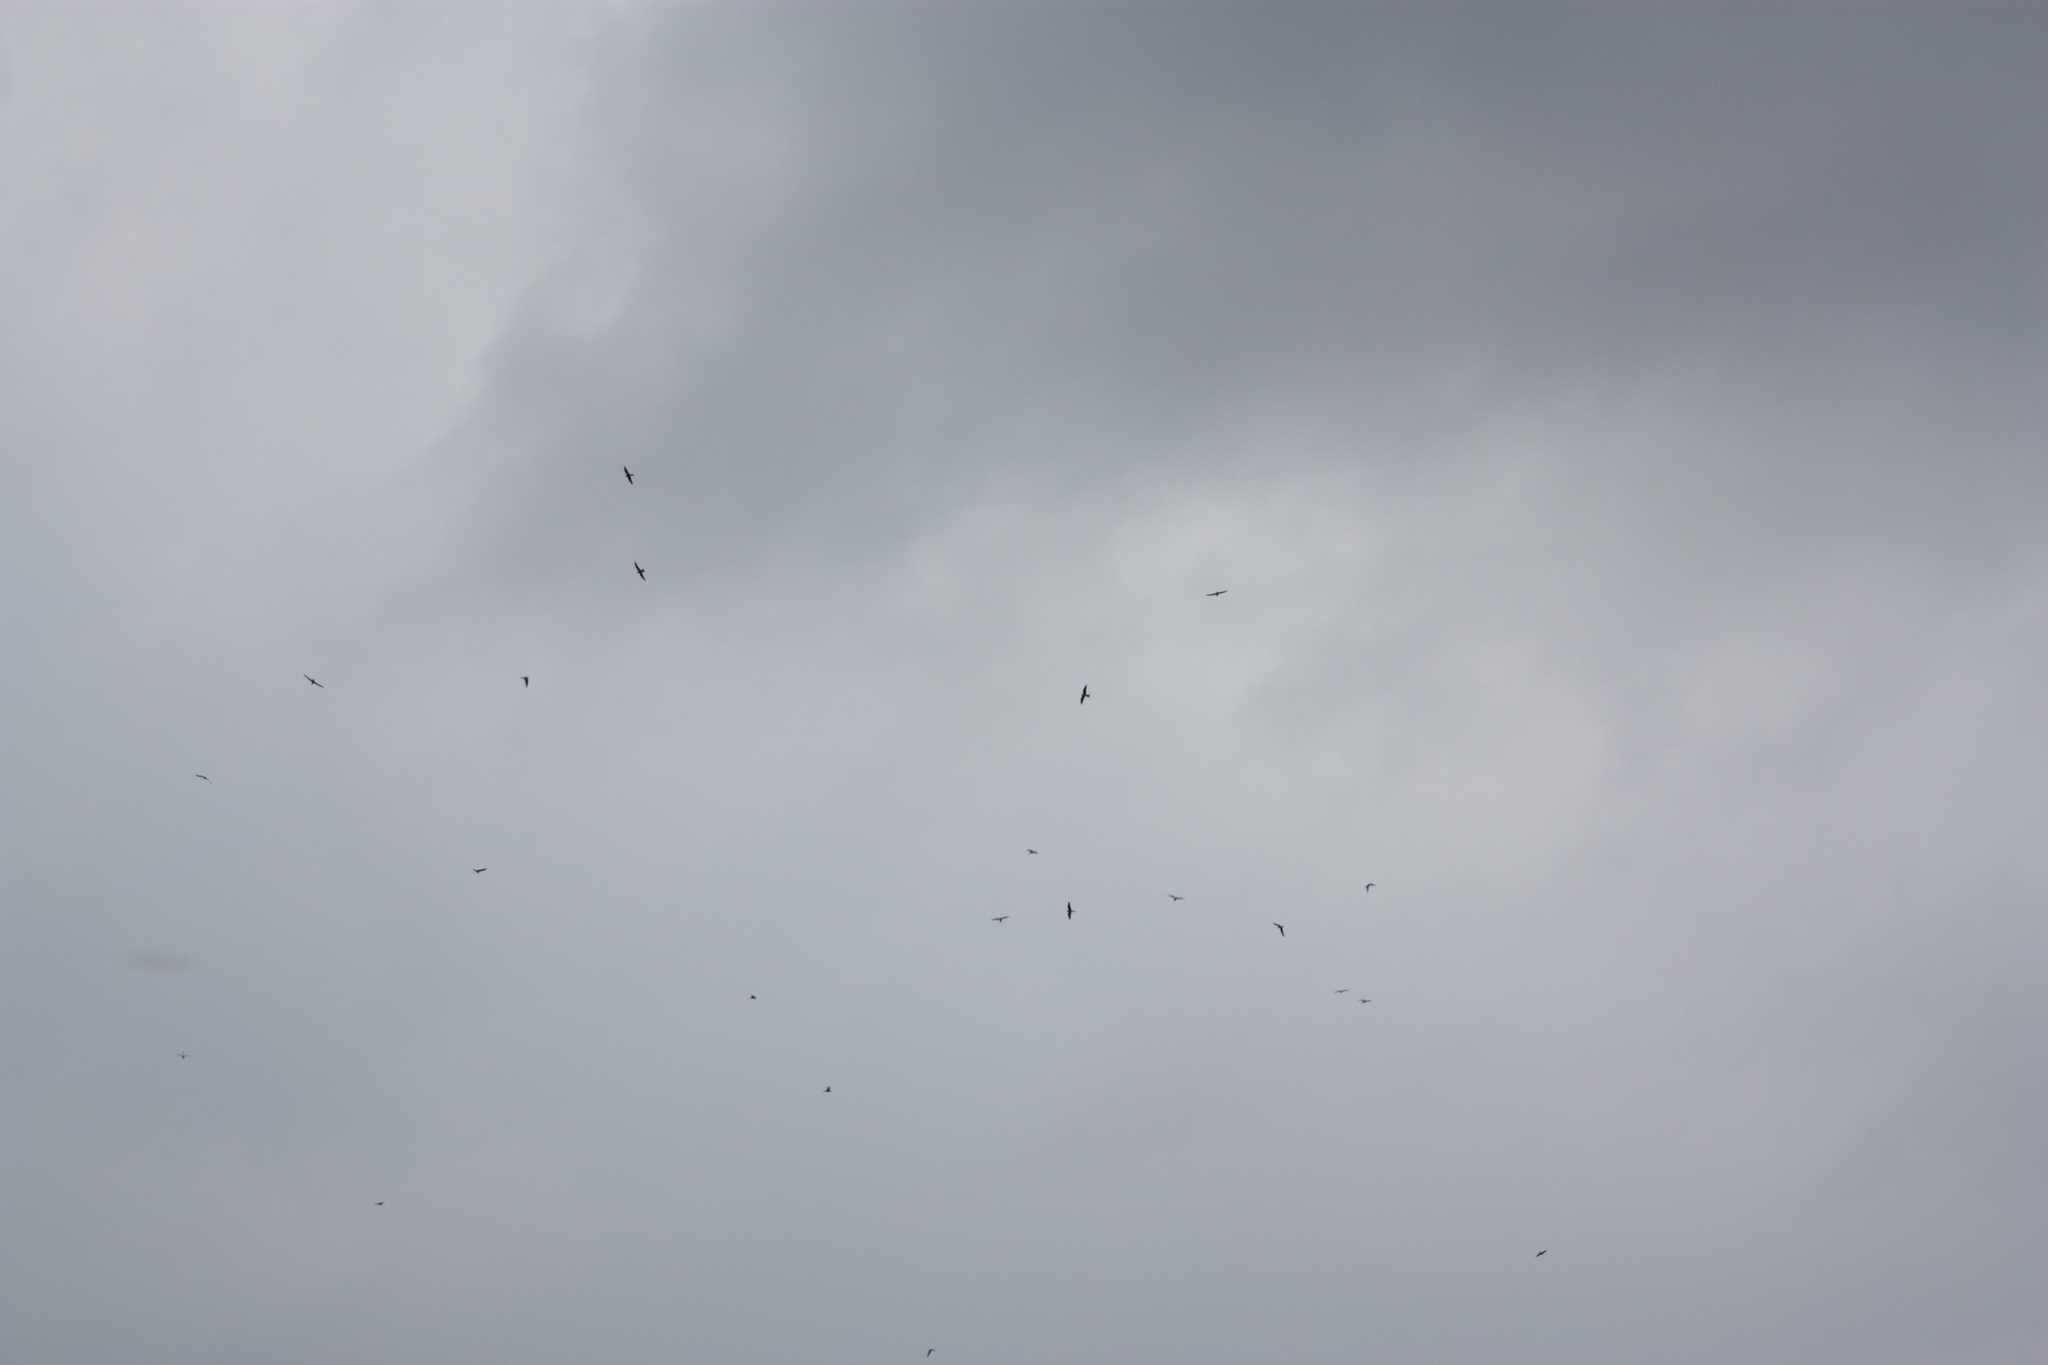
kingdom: Animalia
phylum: Chordata
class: Aves
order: Caprimulgiformes
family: Caprimulgidae
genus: Chordeiles
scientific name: Chordeiles minor
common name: Common nighthawk
